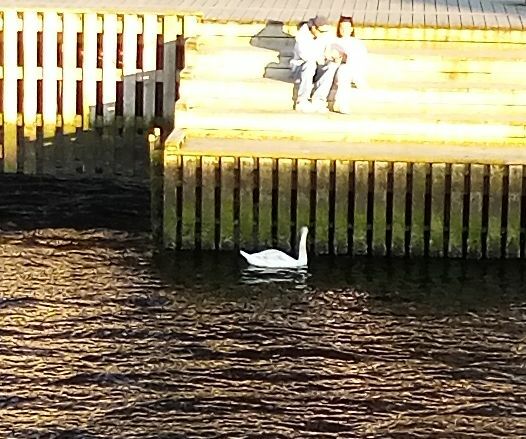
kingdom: Animalia
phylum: Chordata
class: Aves
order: Anseriformes
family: Anatidae
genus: Cygnus
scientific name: Cygnus olor
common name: Mute swan
